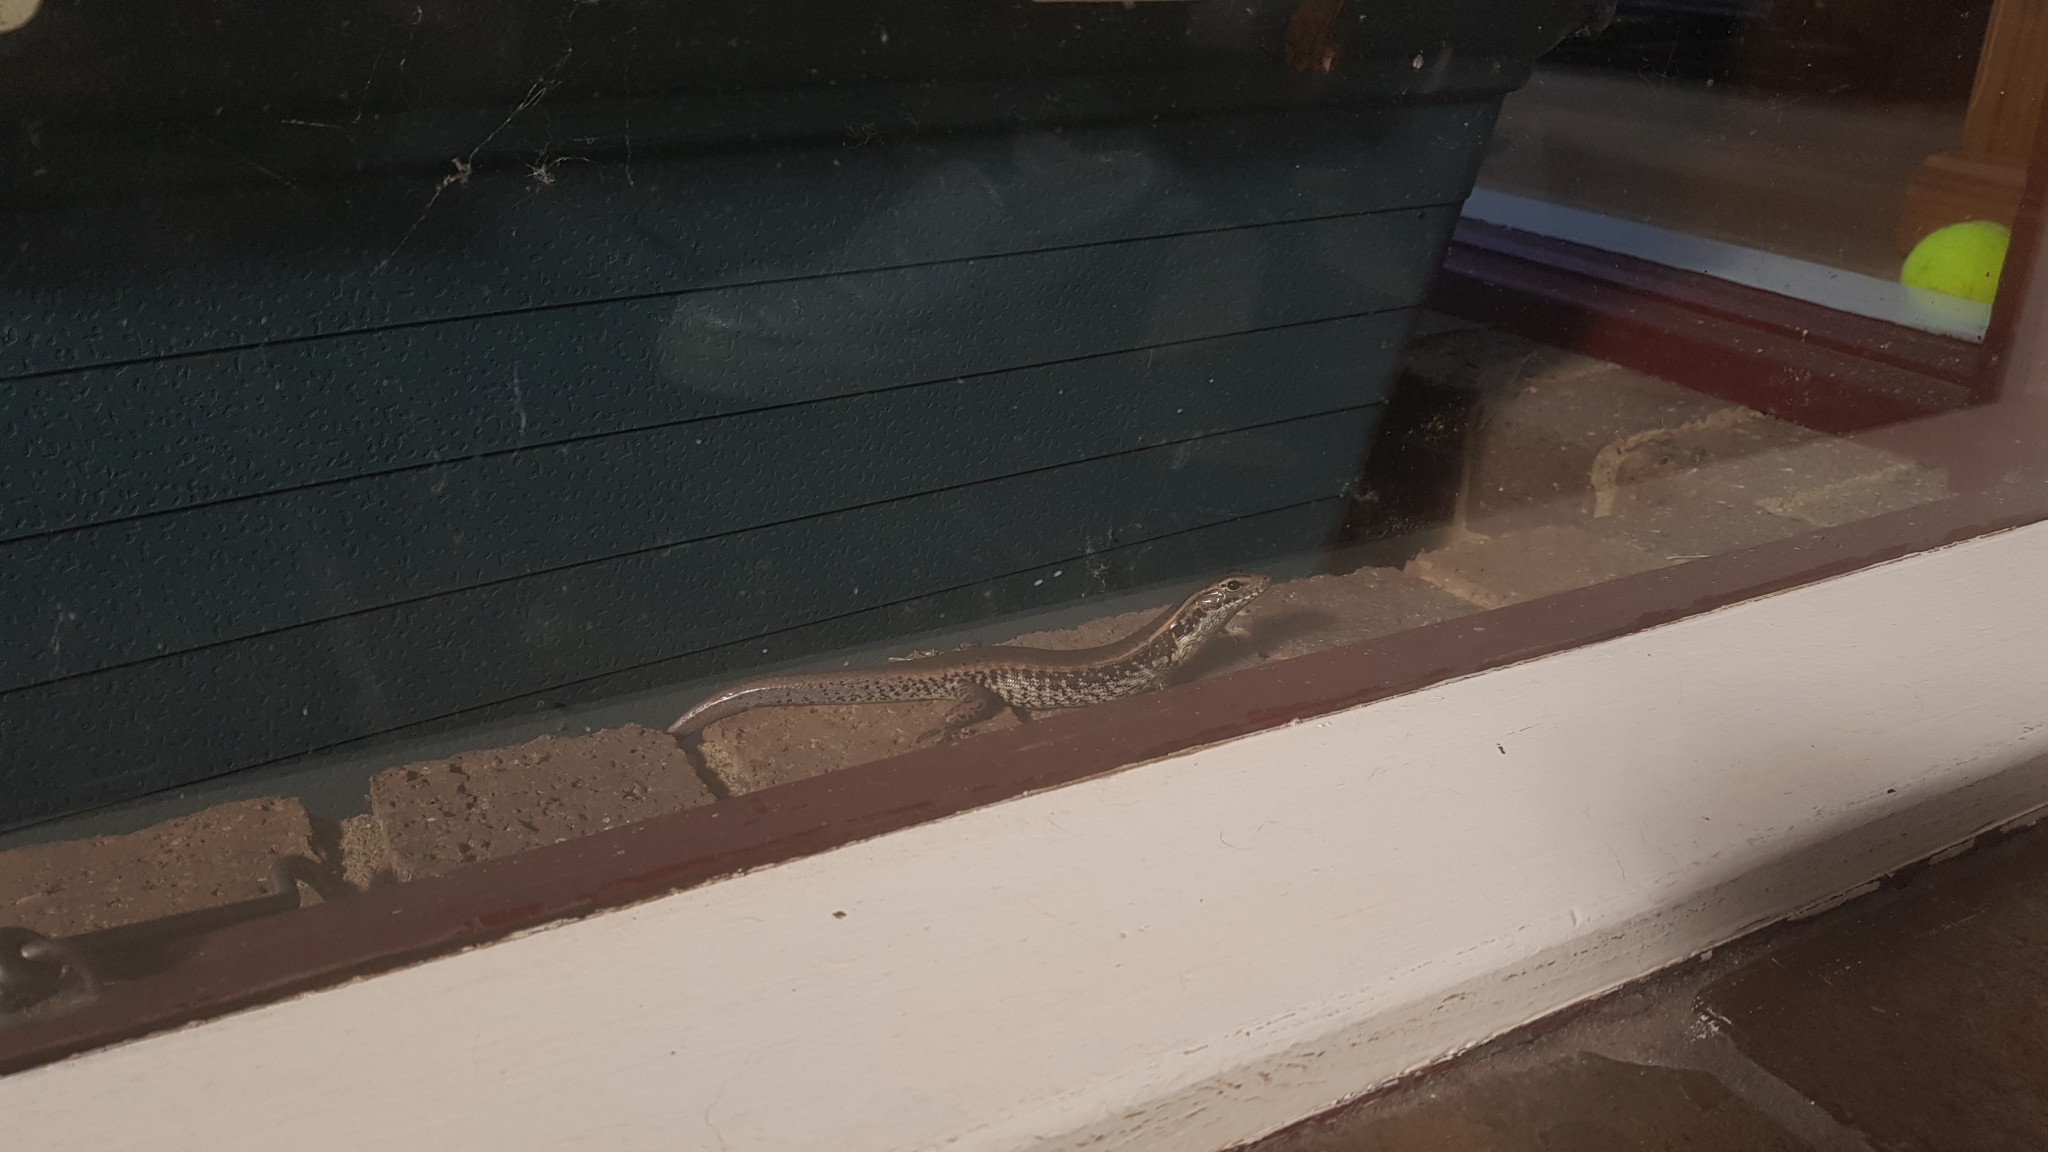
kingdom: Animalia
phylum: Chordata
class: Squamata
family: Scincidae
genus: Eulamprus
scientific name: Eulamprus quoyii
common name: Eastern water skink
